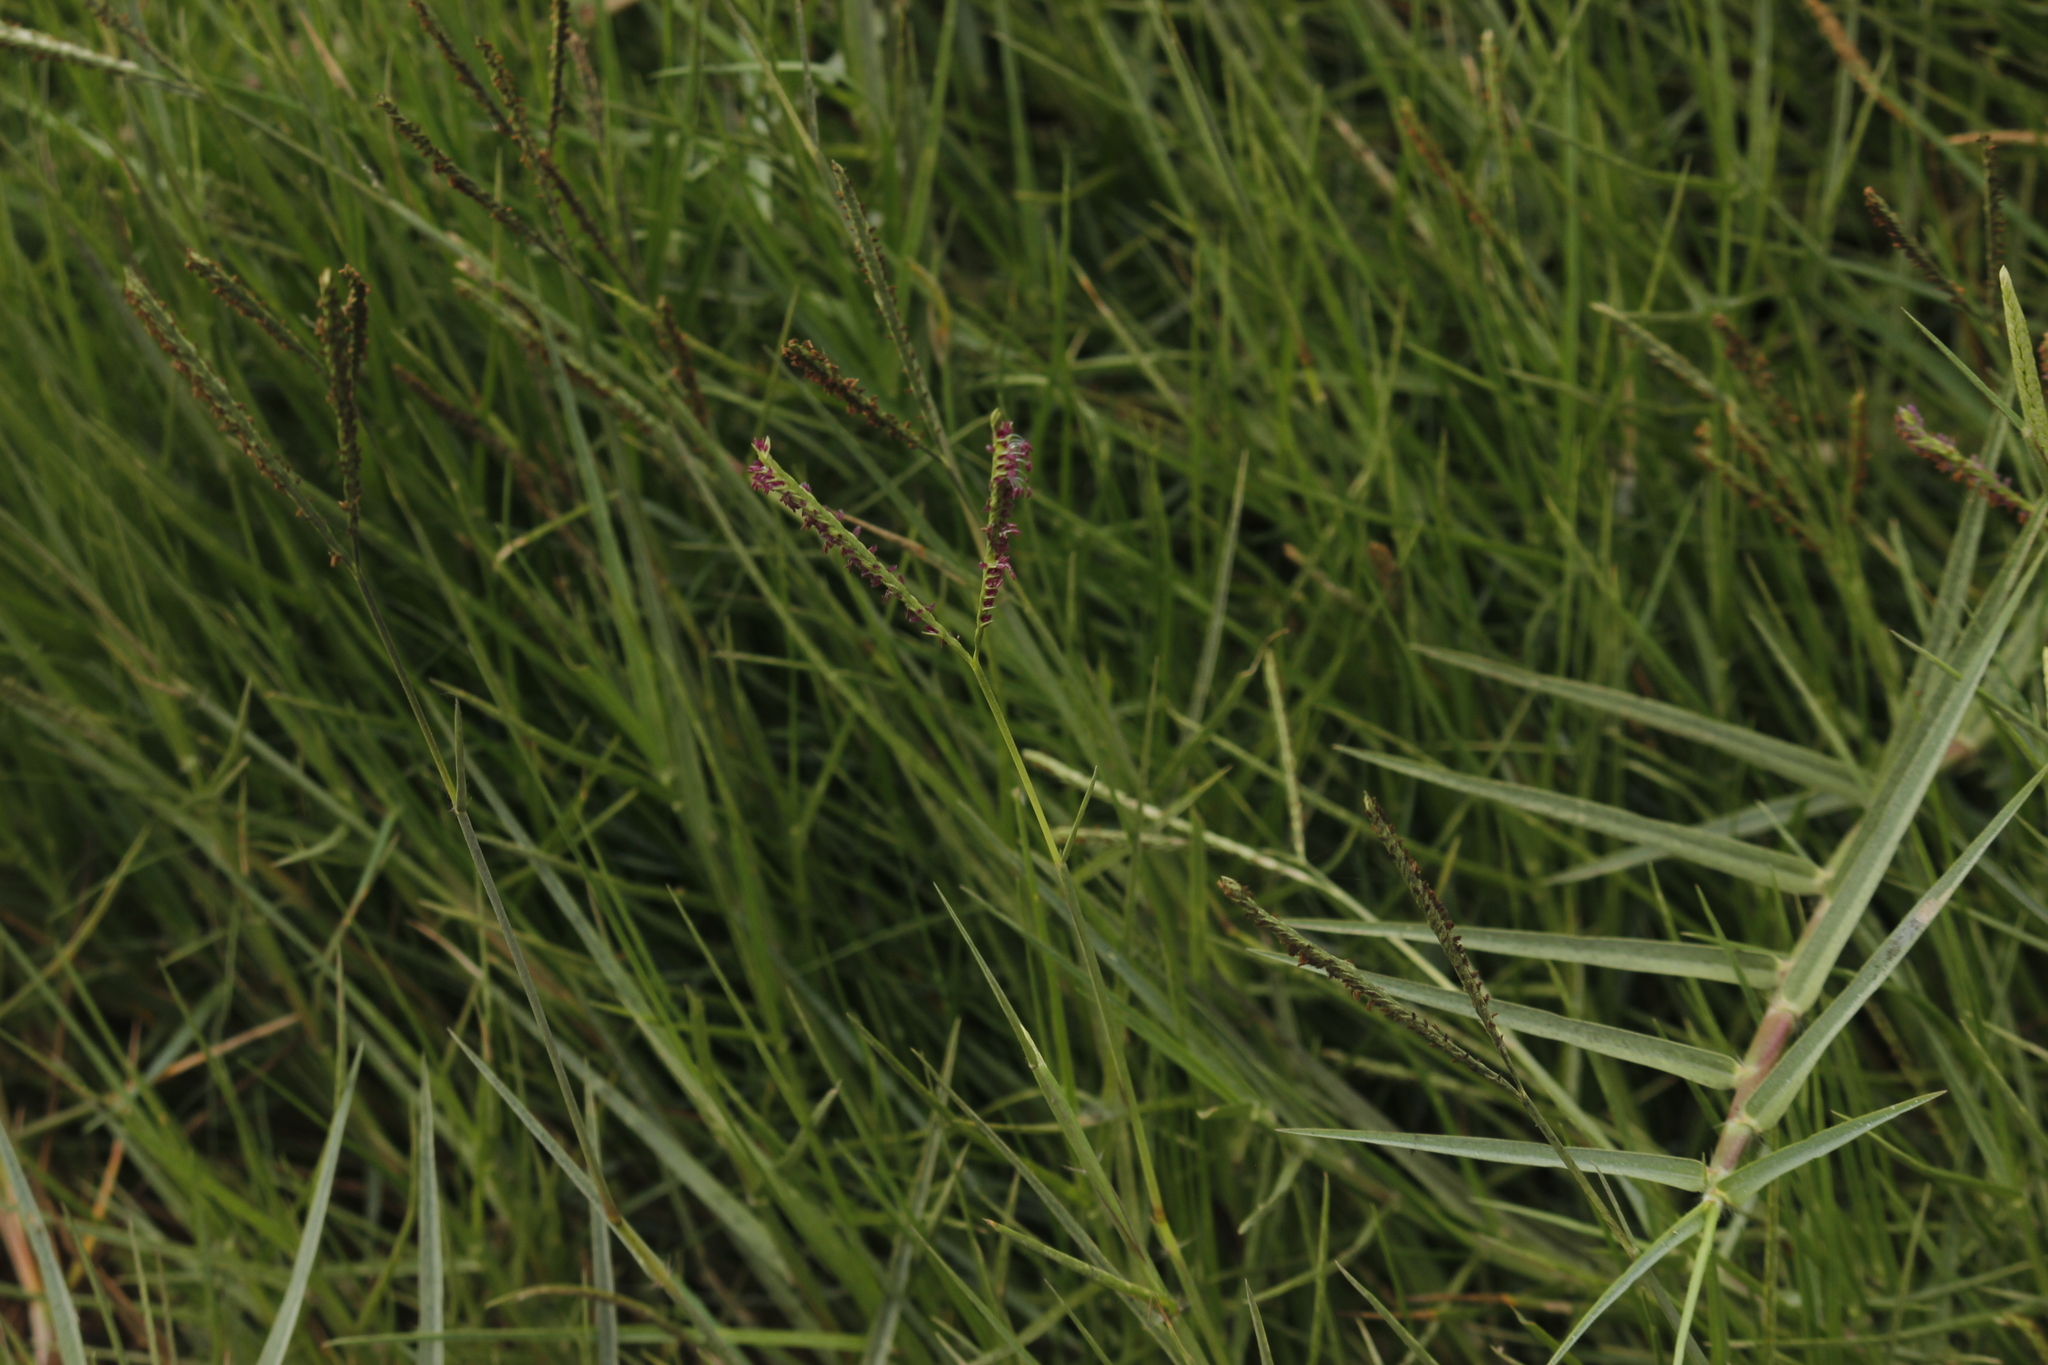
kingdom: Plantae
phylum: Tracheophyta
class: Liliopsida
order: Poales
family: Poaceae
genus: Paspalum
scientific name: Paspalum vaginatum
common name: Seashore paspalum
